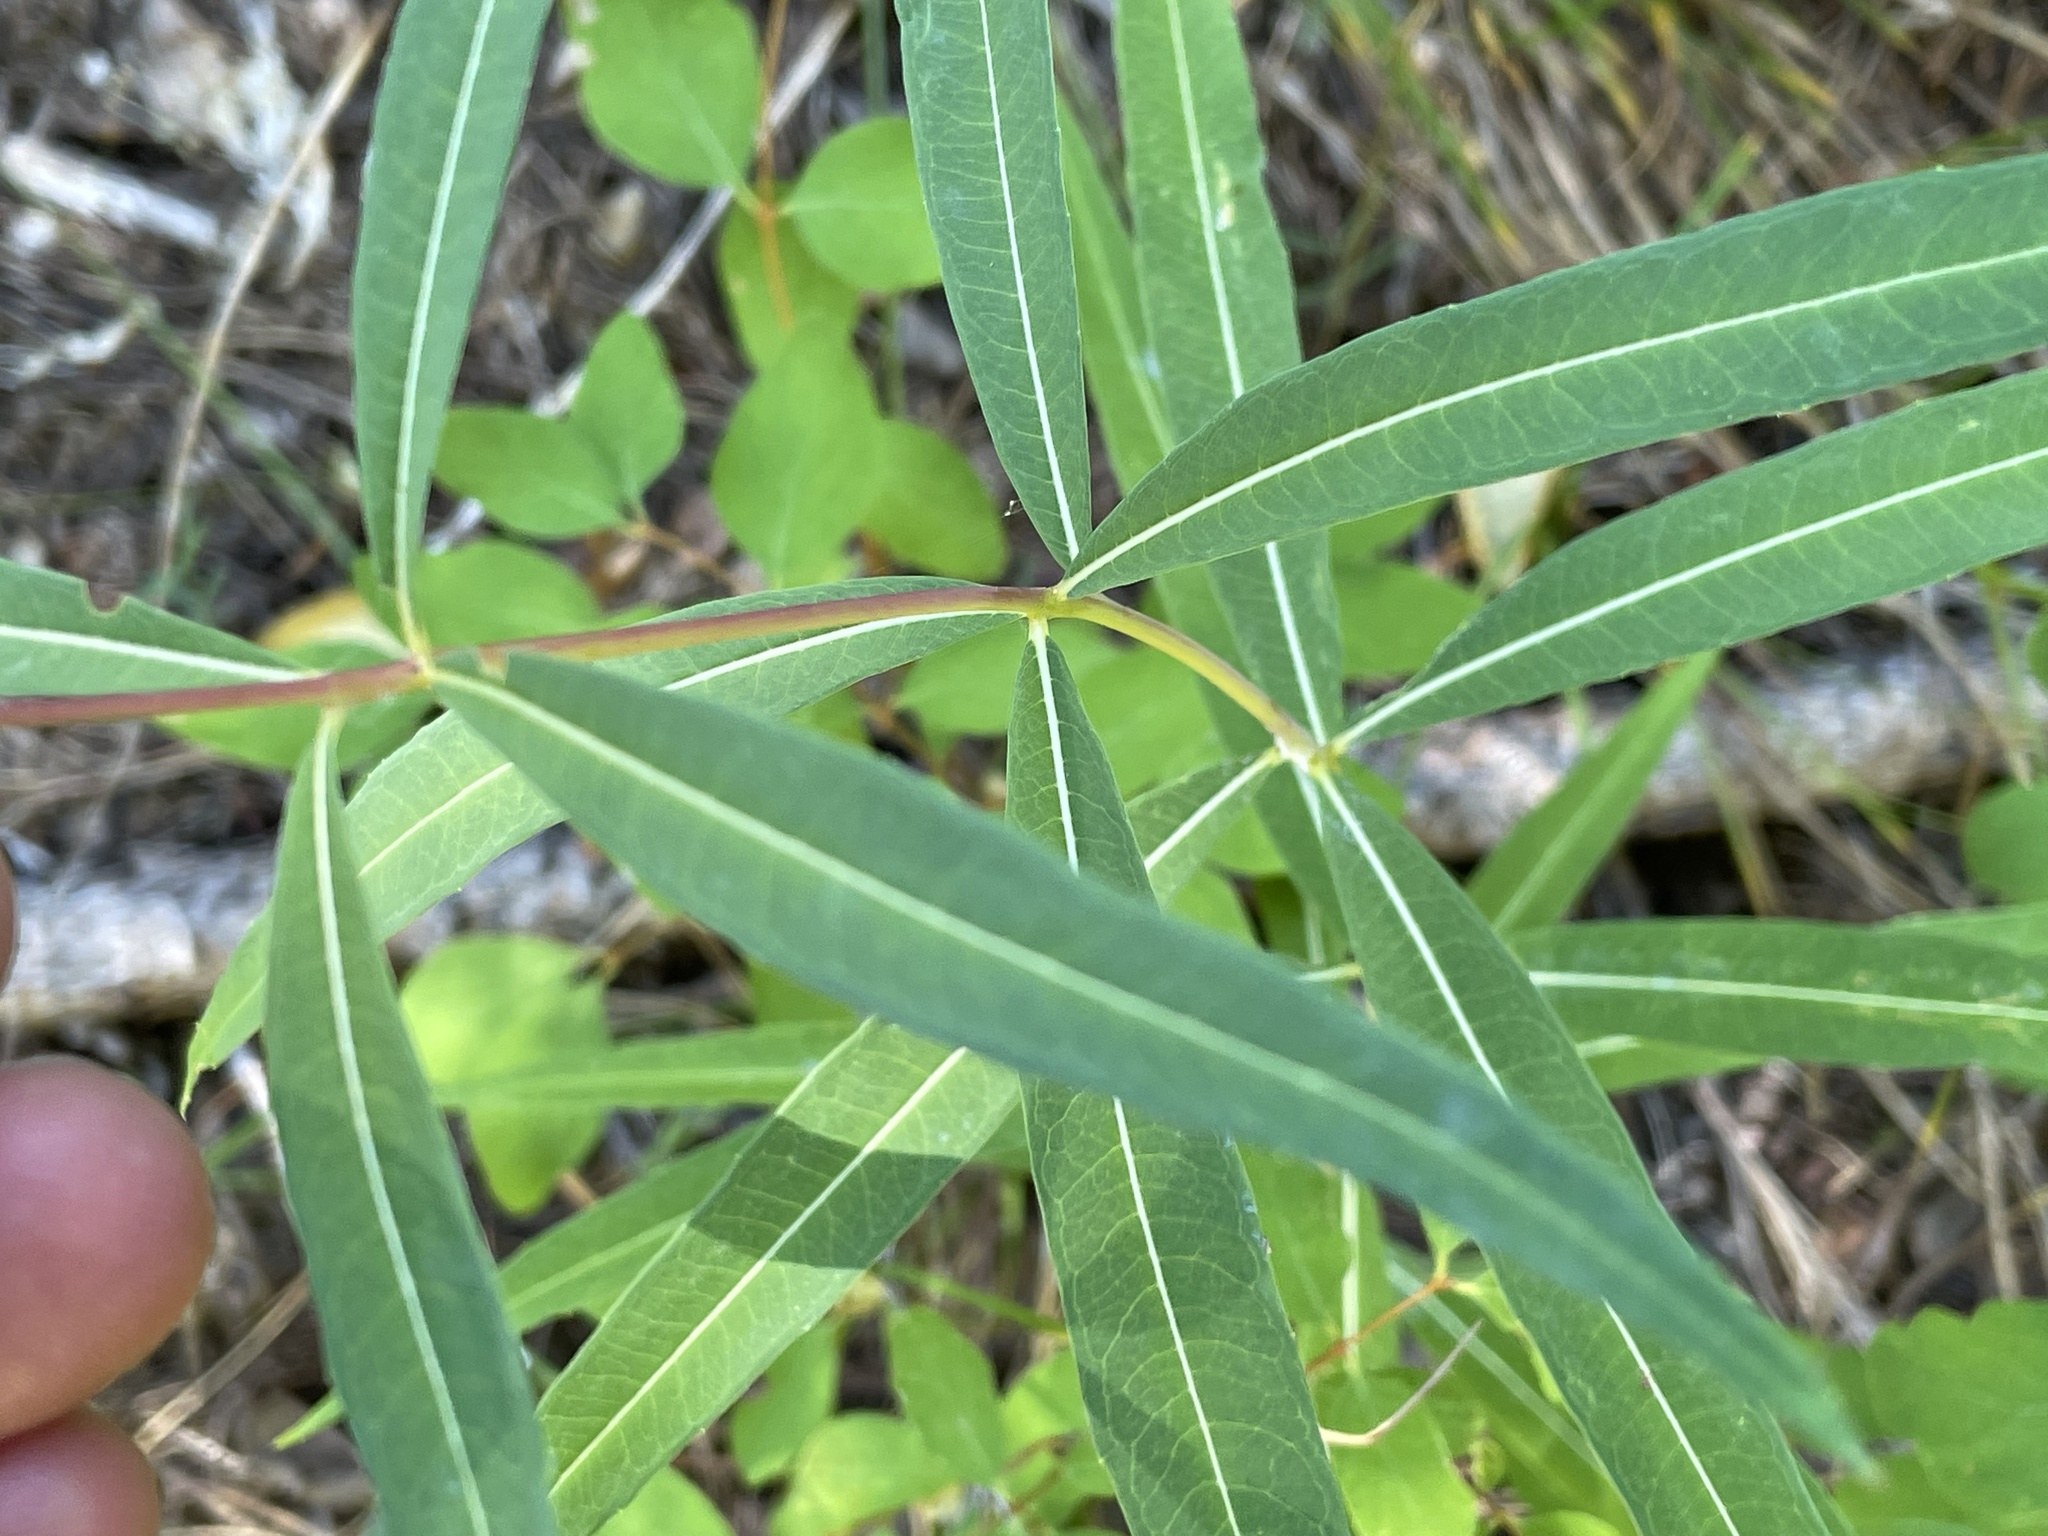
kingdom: Plantae
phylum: Tracheophyta
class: Magnoliopsida
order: Myrtales
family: Onagraceae
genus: Chamaenerion
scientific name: Chamaenerion angustifolium
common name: Fireweed
